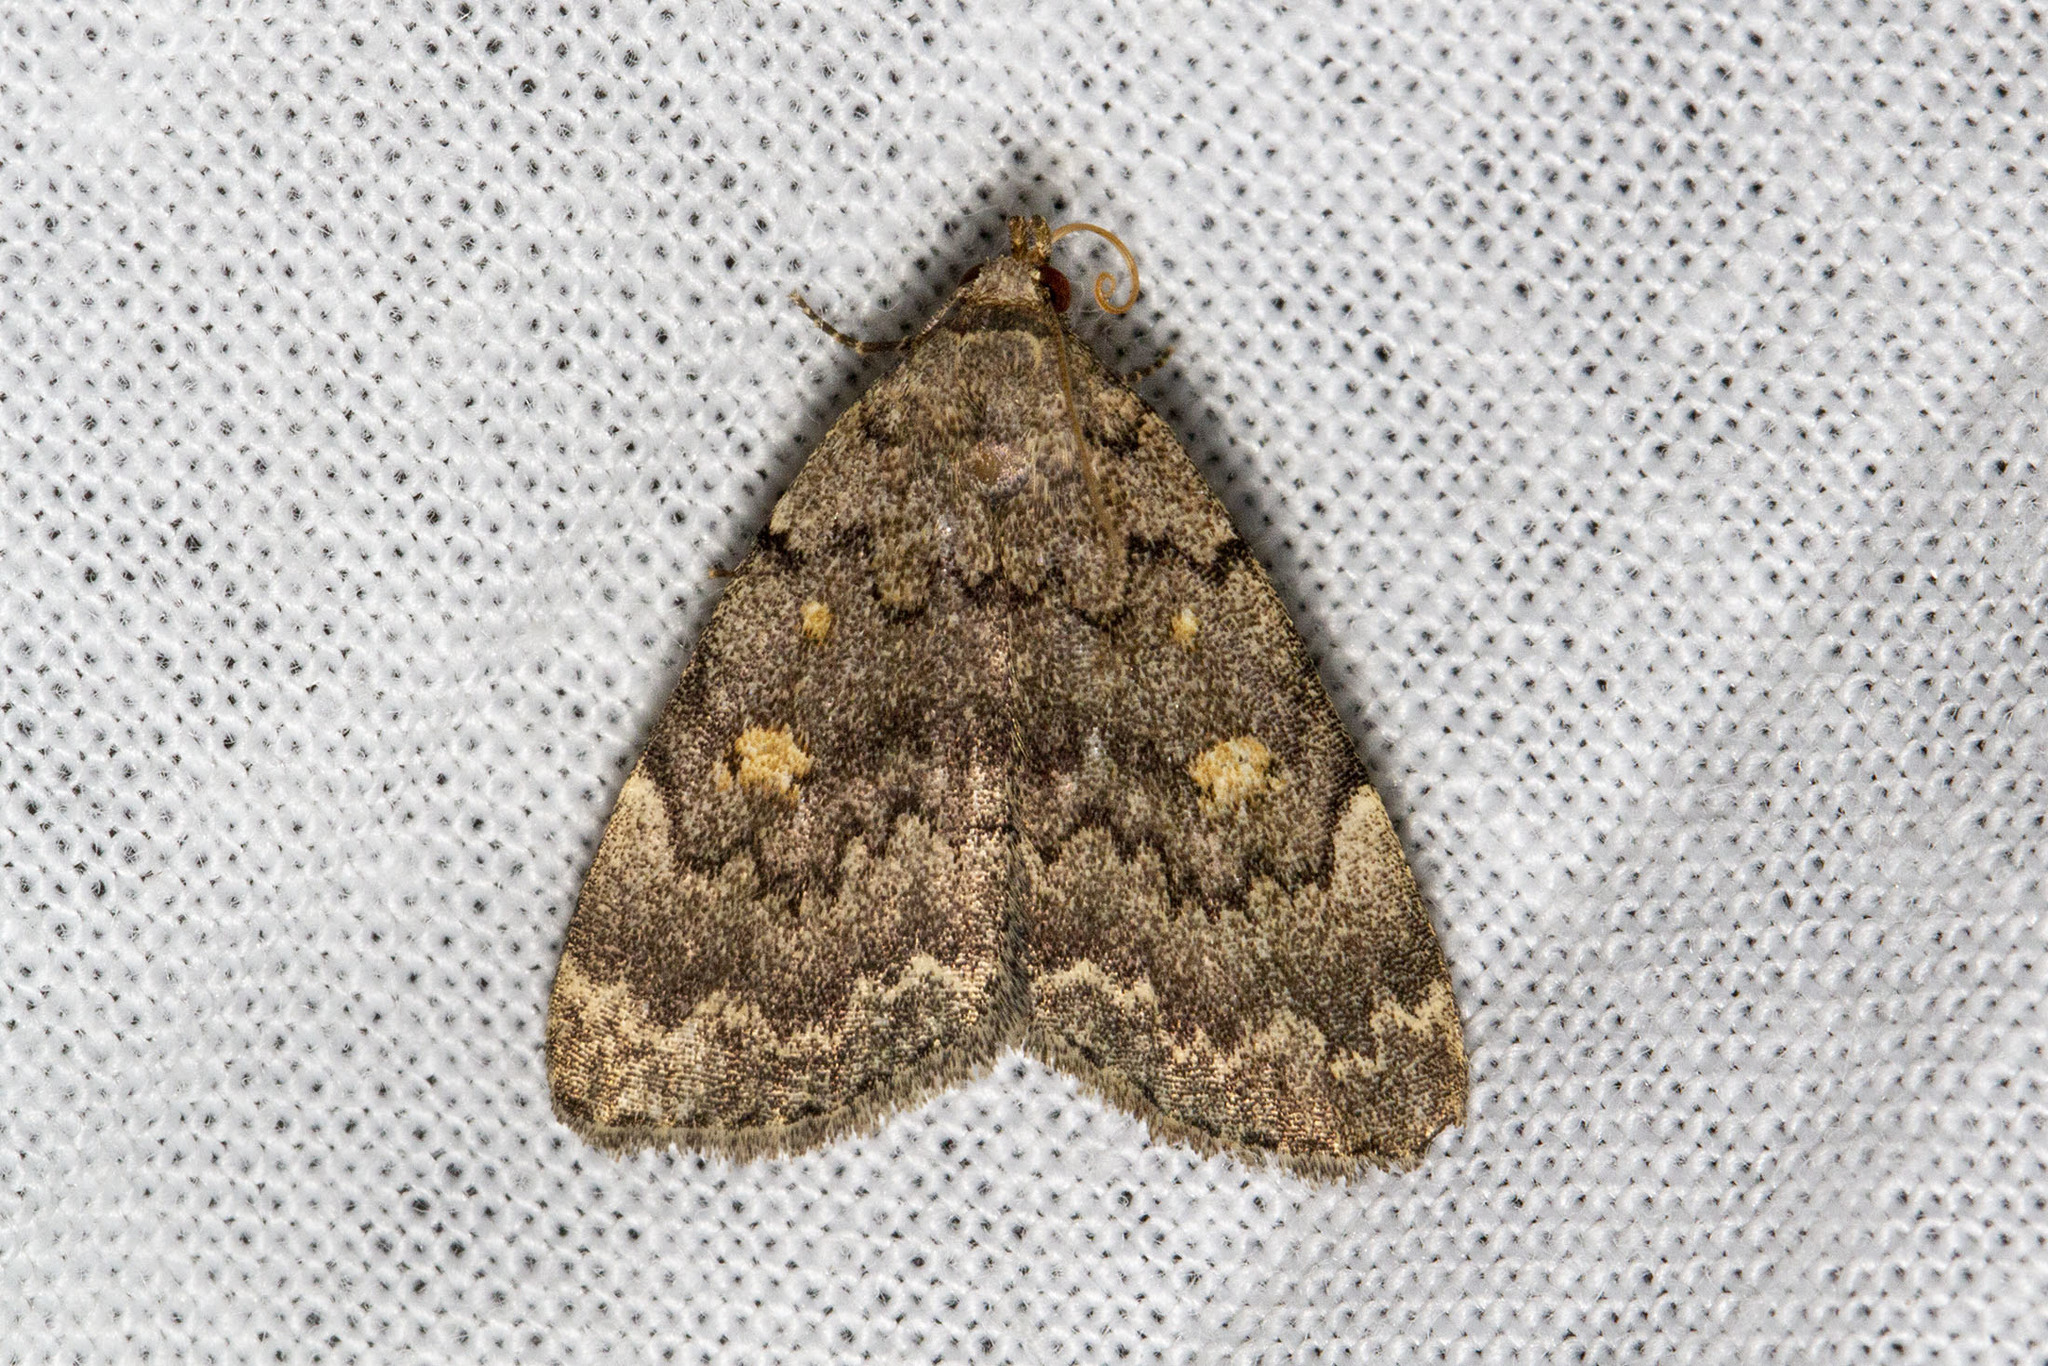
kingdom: Animalia
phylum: Arthropoda
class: Insecta
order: Lepidoptera
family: Erebidae
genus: Idia
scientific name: Idia aemula
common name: Common idia moth
